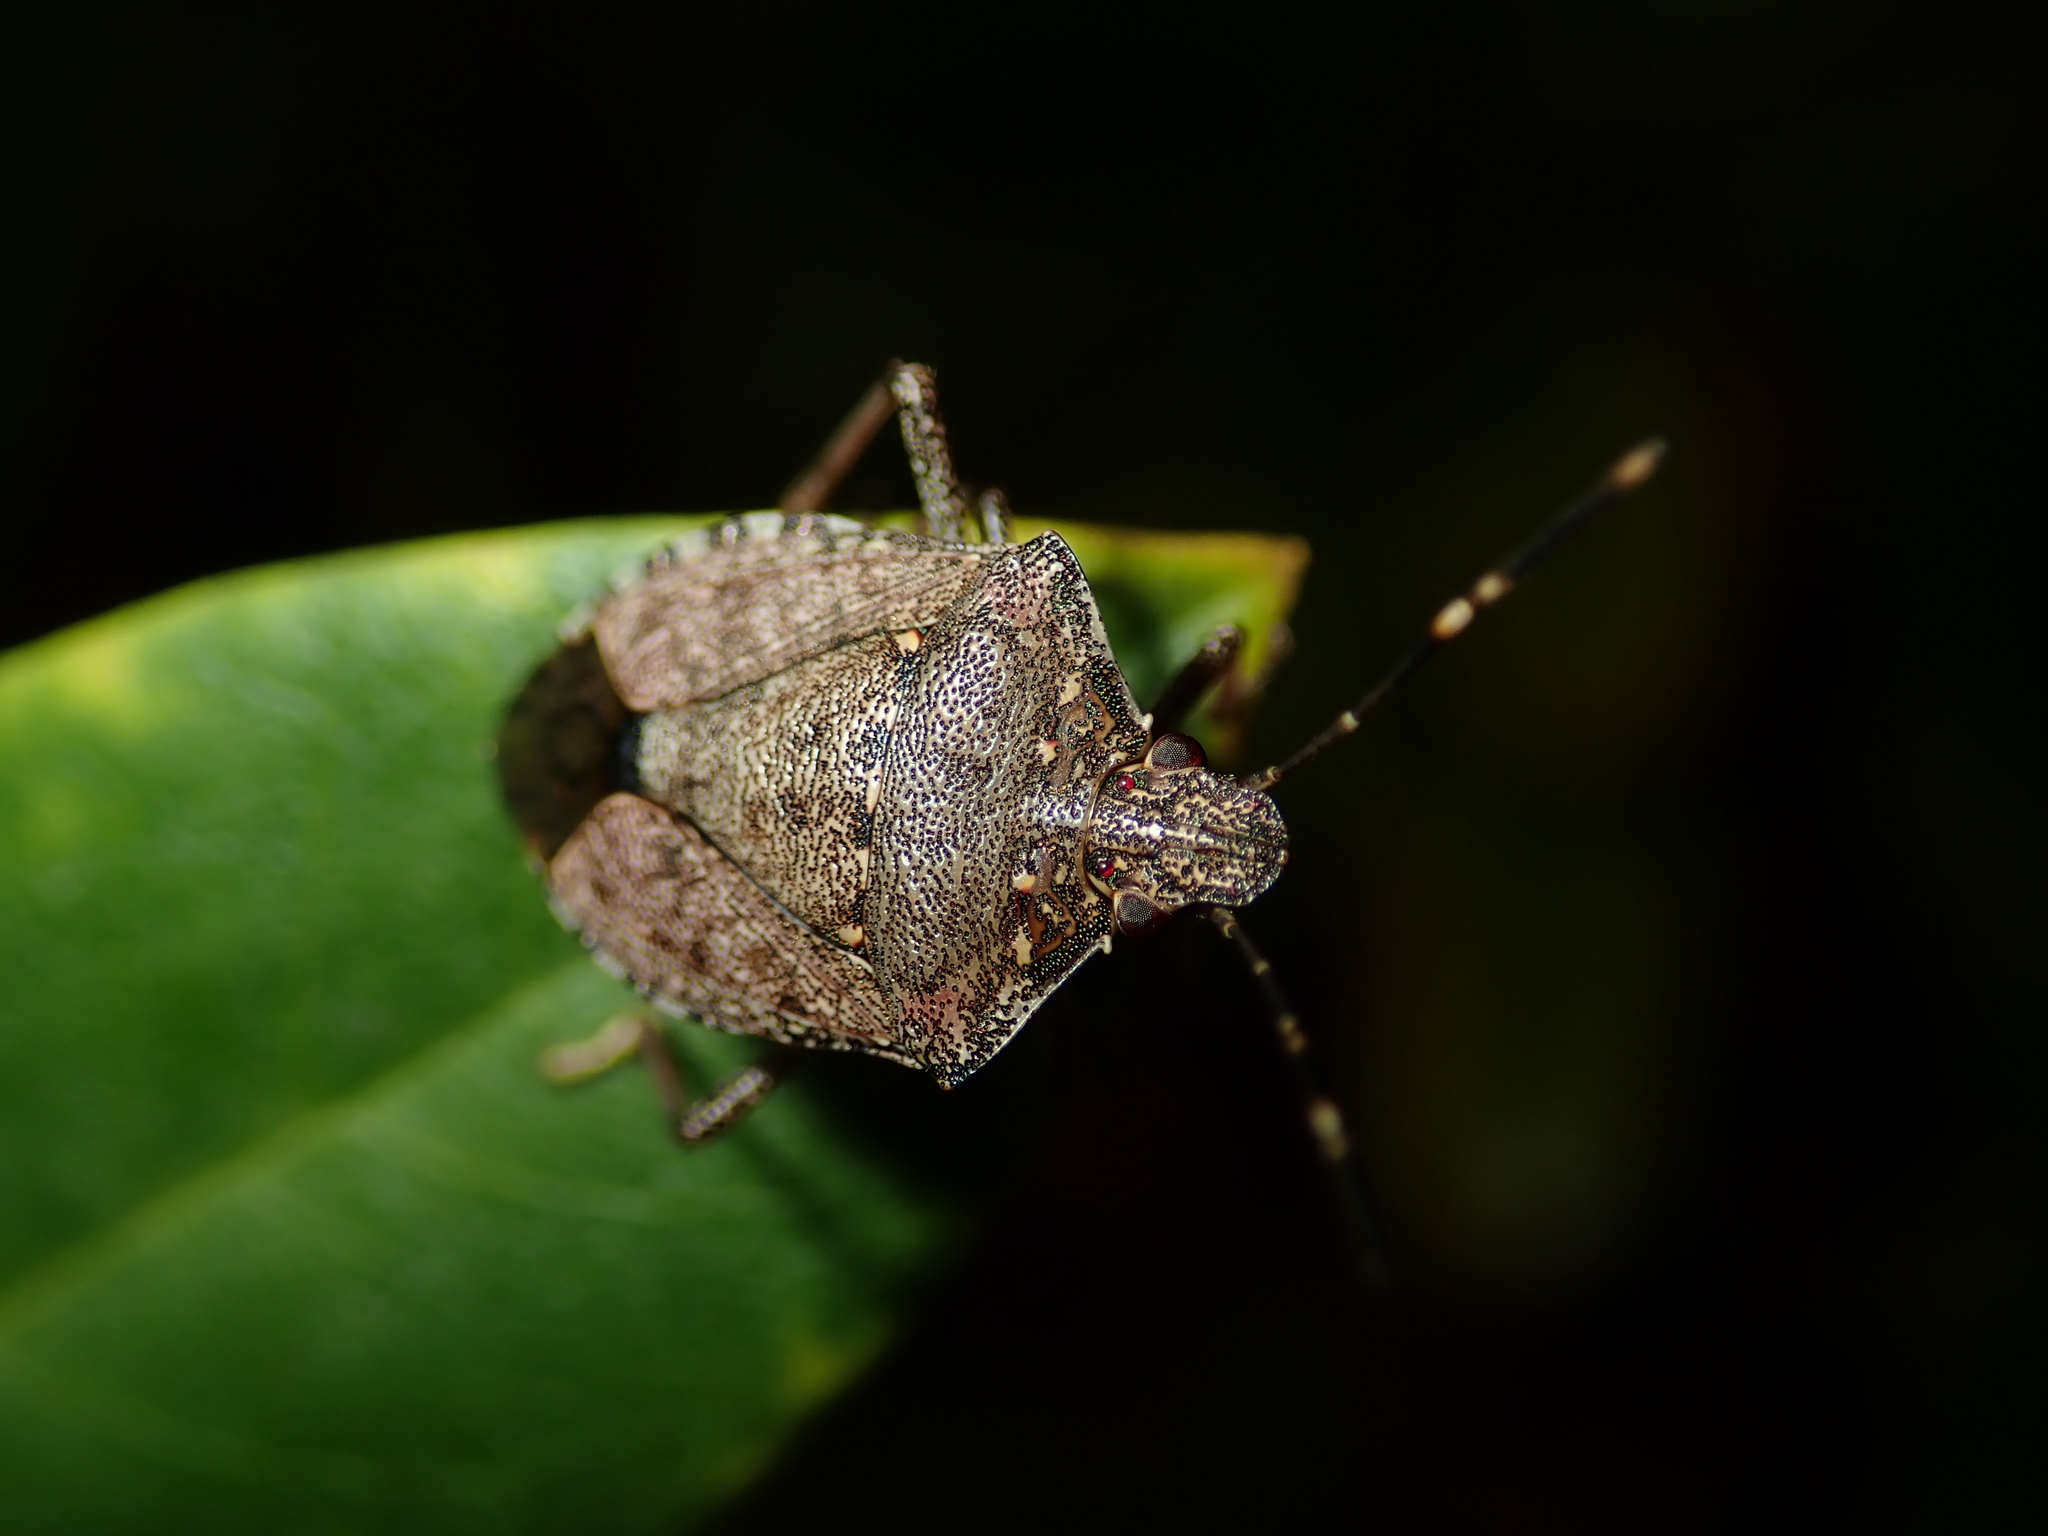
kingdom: Animalia
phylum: Arthropoda
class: Insecta
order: Hemiptera
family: Pentatomidae
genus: Halyomorpha
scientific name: Halyomorpha halys
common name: Brown marmorated stink bug
